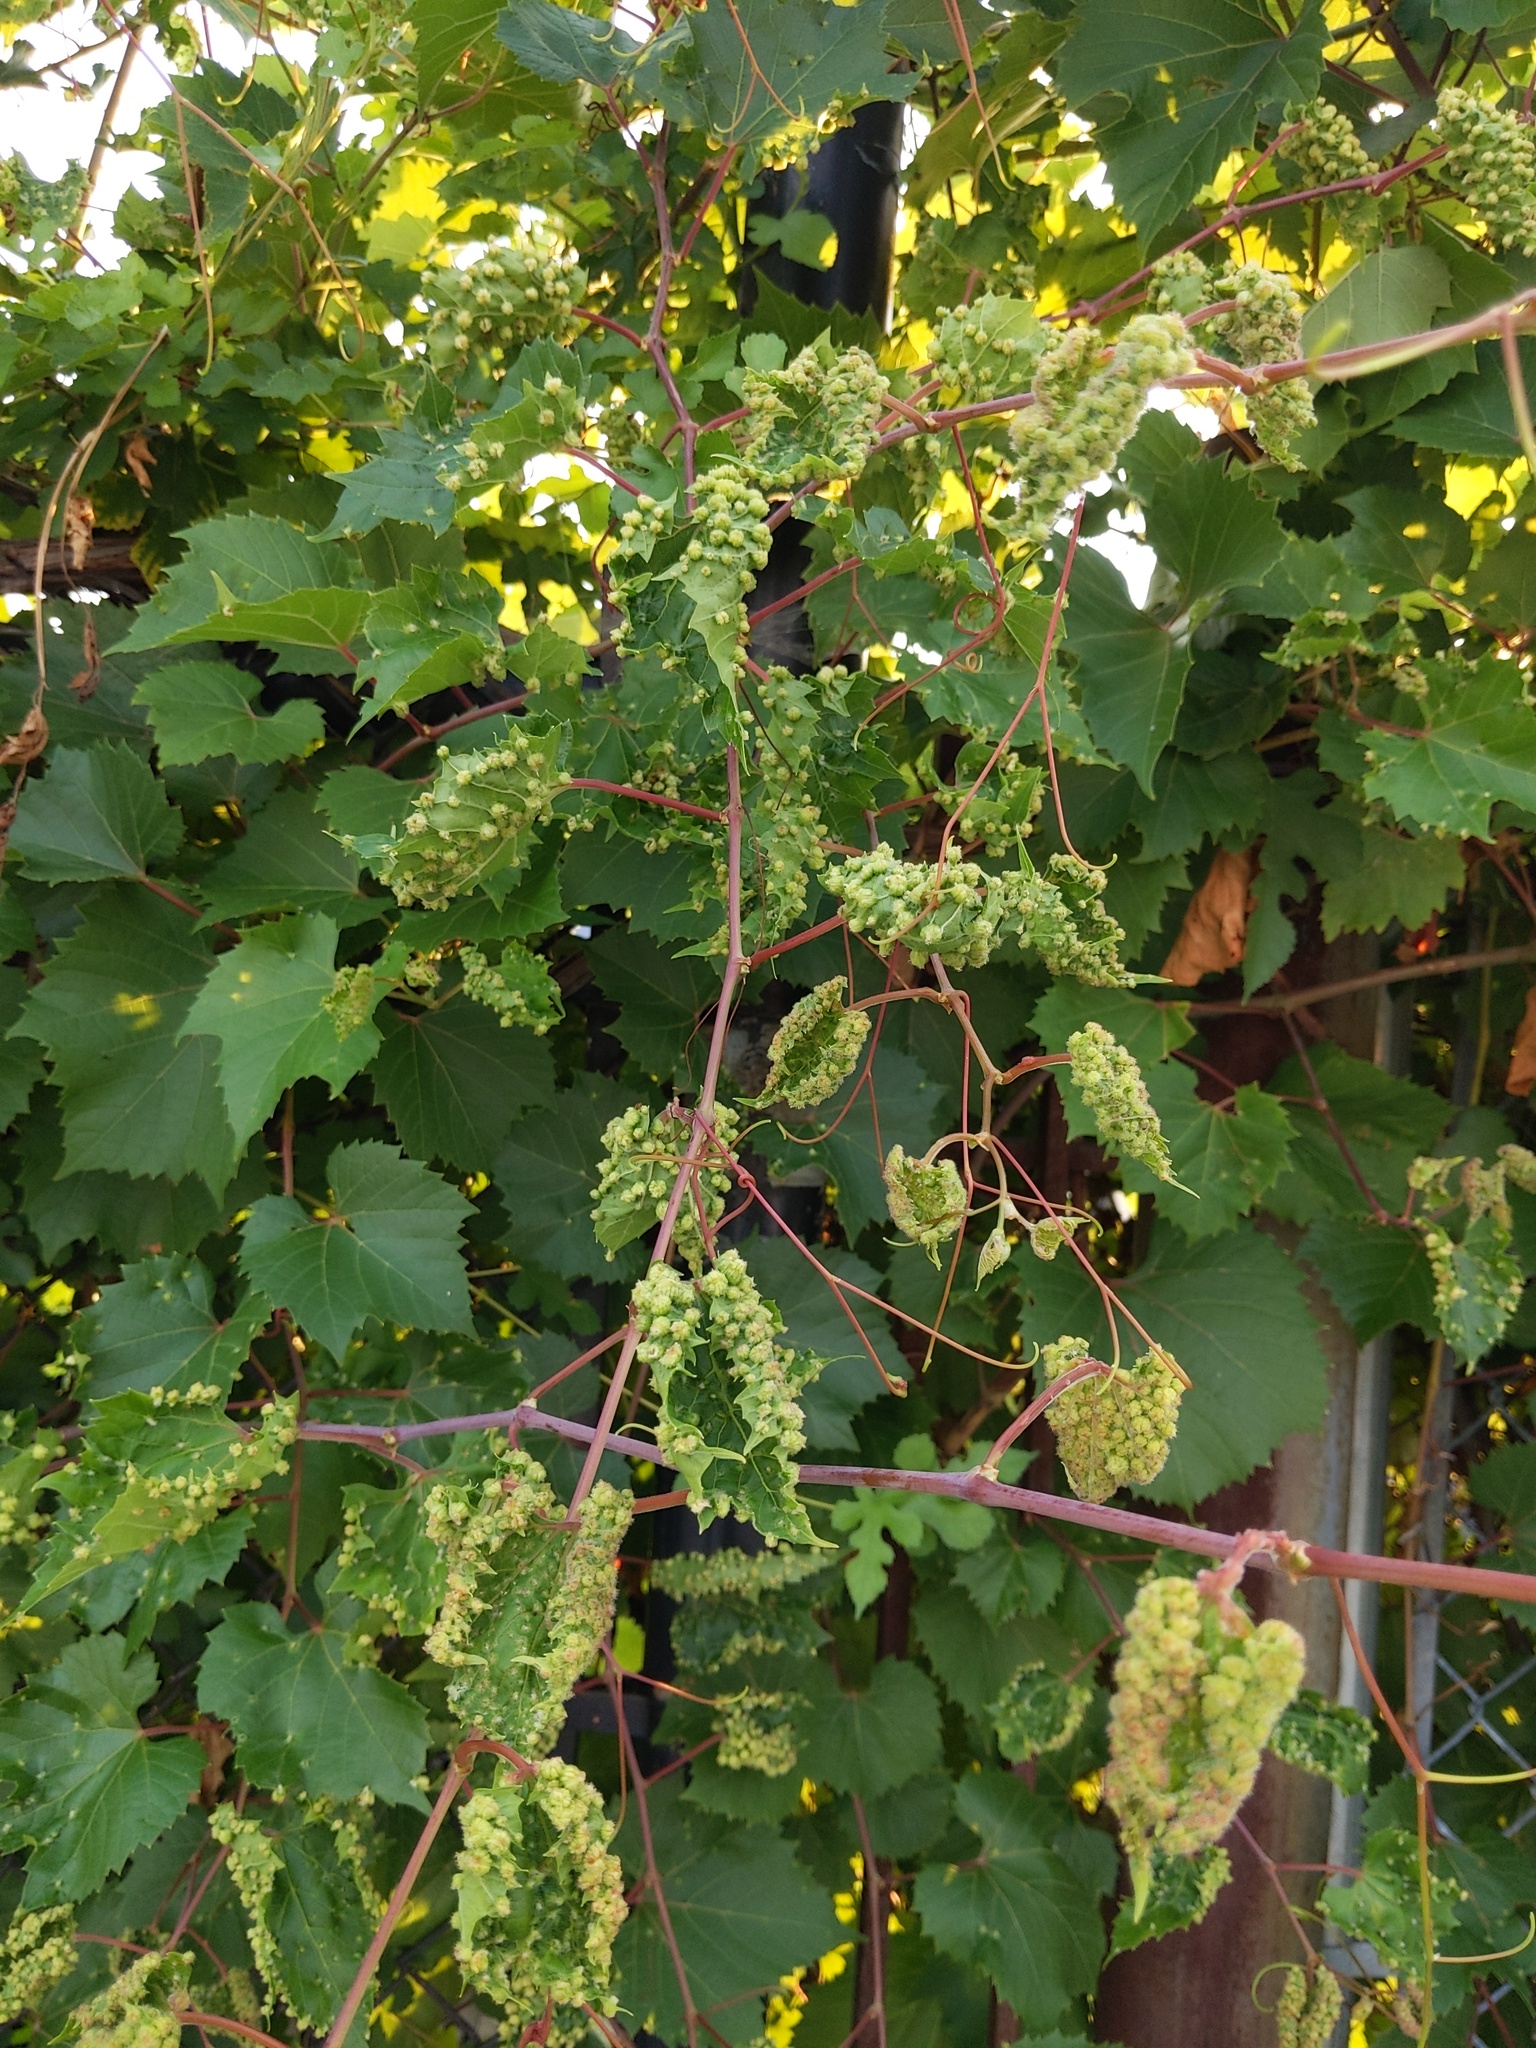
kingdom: Animalia
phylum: Arthropoda
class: Insecta
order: Hemiptera
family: Phylloxeridae
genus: Daktulosphaira
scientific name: Daktulosphaira vitifoliae
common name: Grape phylloxera
